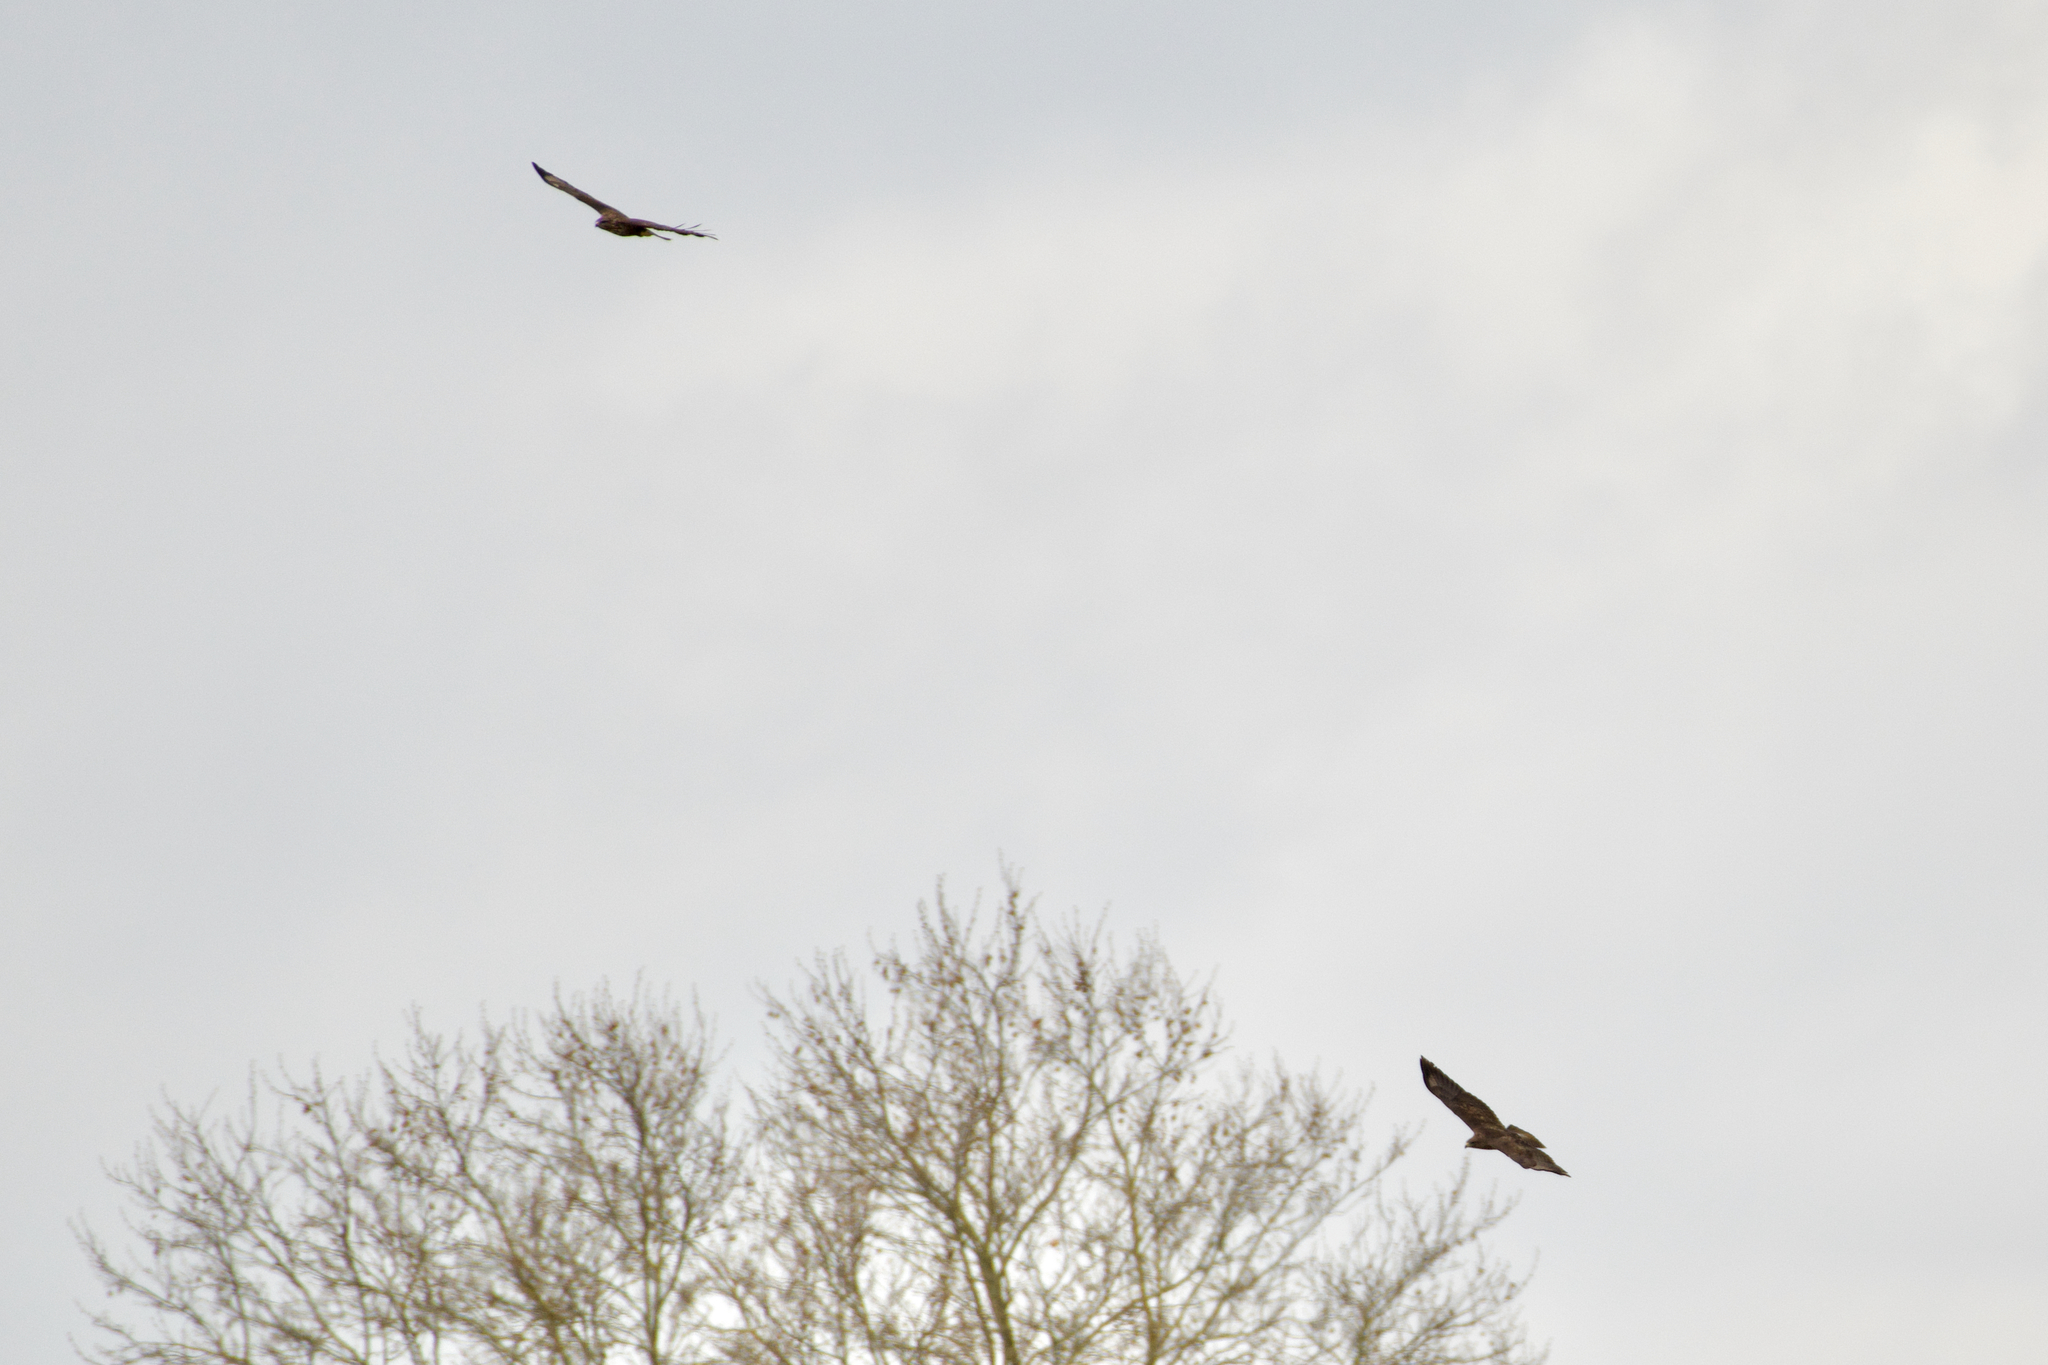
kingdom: Animalia
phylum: Chordata
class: Aves
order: Accipitriformes
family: Accipitridae
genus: Buteo
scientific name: Buteo buteo
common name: Common buzzard
